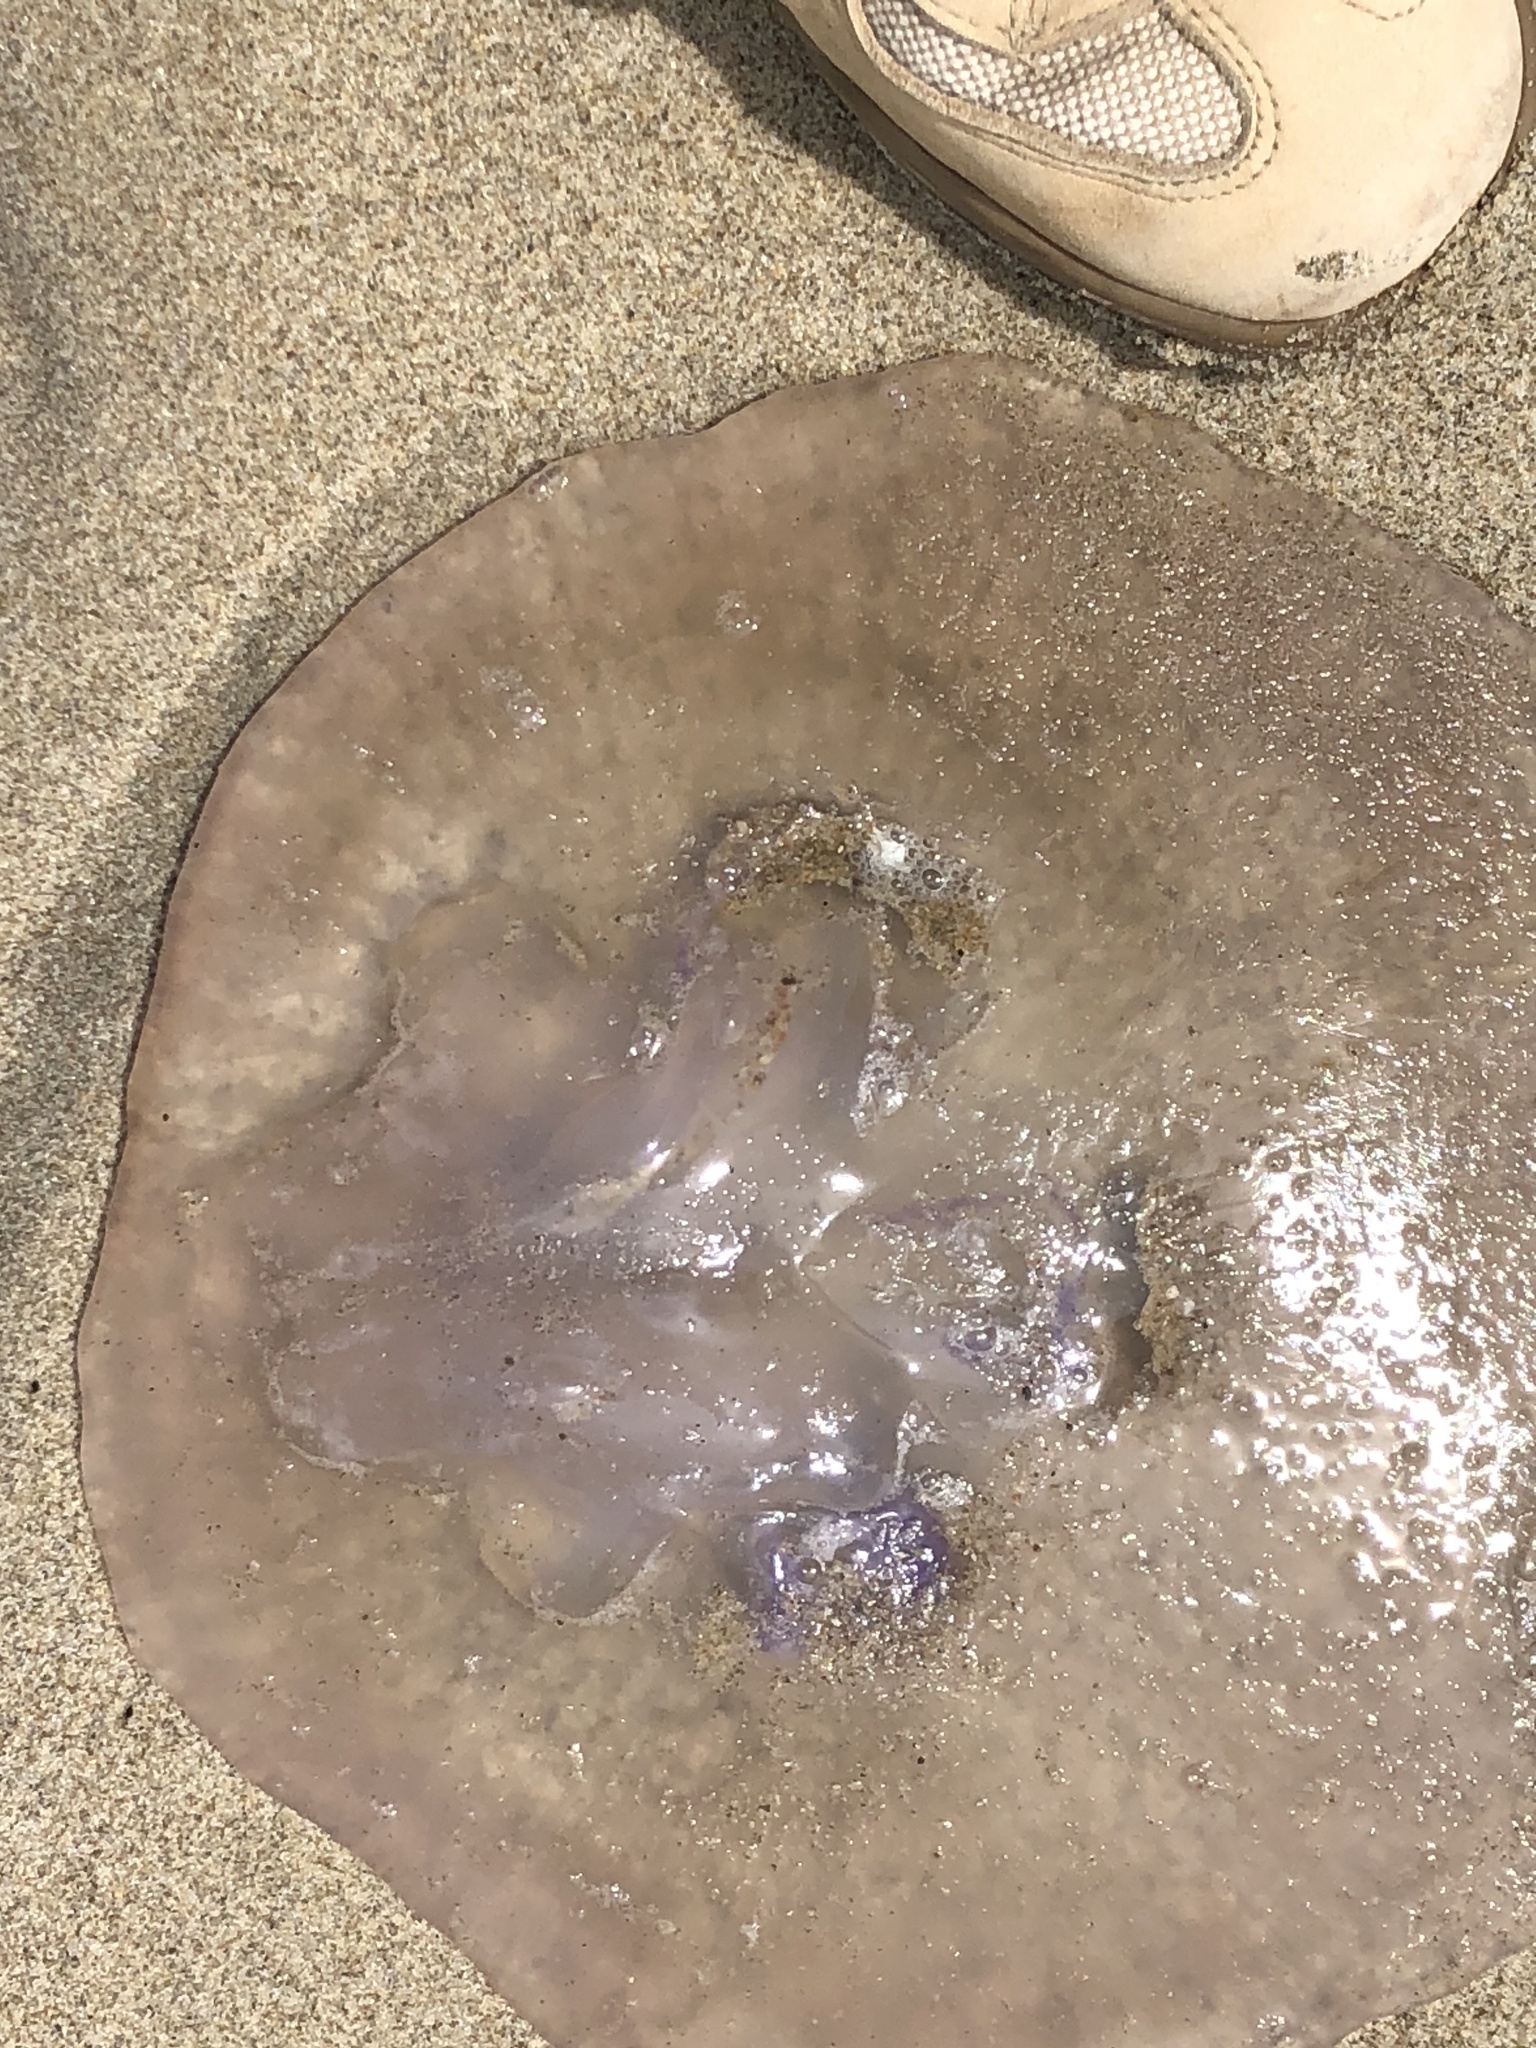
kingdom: Animalia
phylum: Cnidaria
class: Scyphozoa
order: Semaeostomeae
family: Ulmaridae
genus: Aurelia
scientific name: Aurelia labiata
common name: Pacific moon jelly
